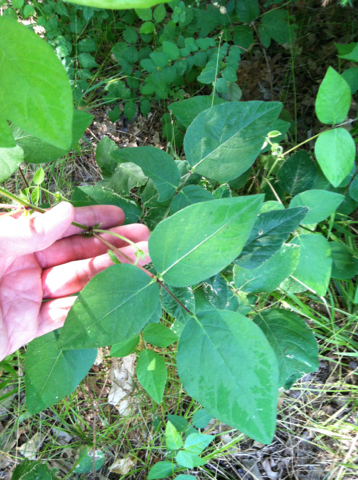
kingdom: Plantae
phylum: Tracheophyta
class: Magnoliopsida
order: Fabales
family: Fabaceae
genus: Desmodium
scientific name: Desmodium canescens
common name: Hoary tick-clover
